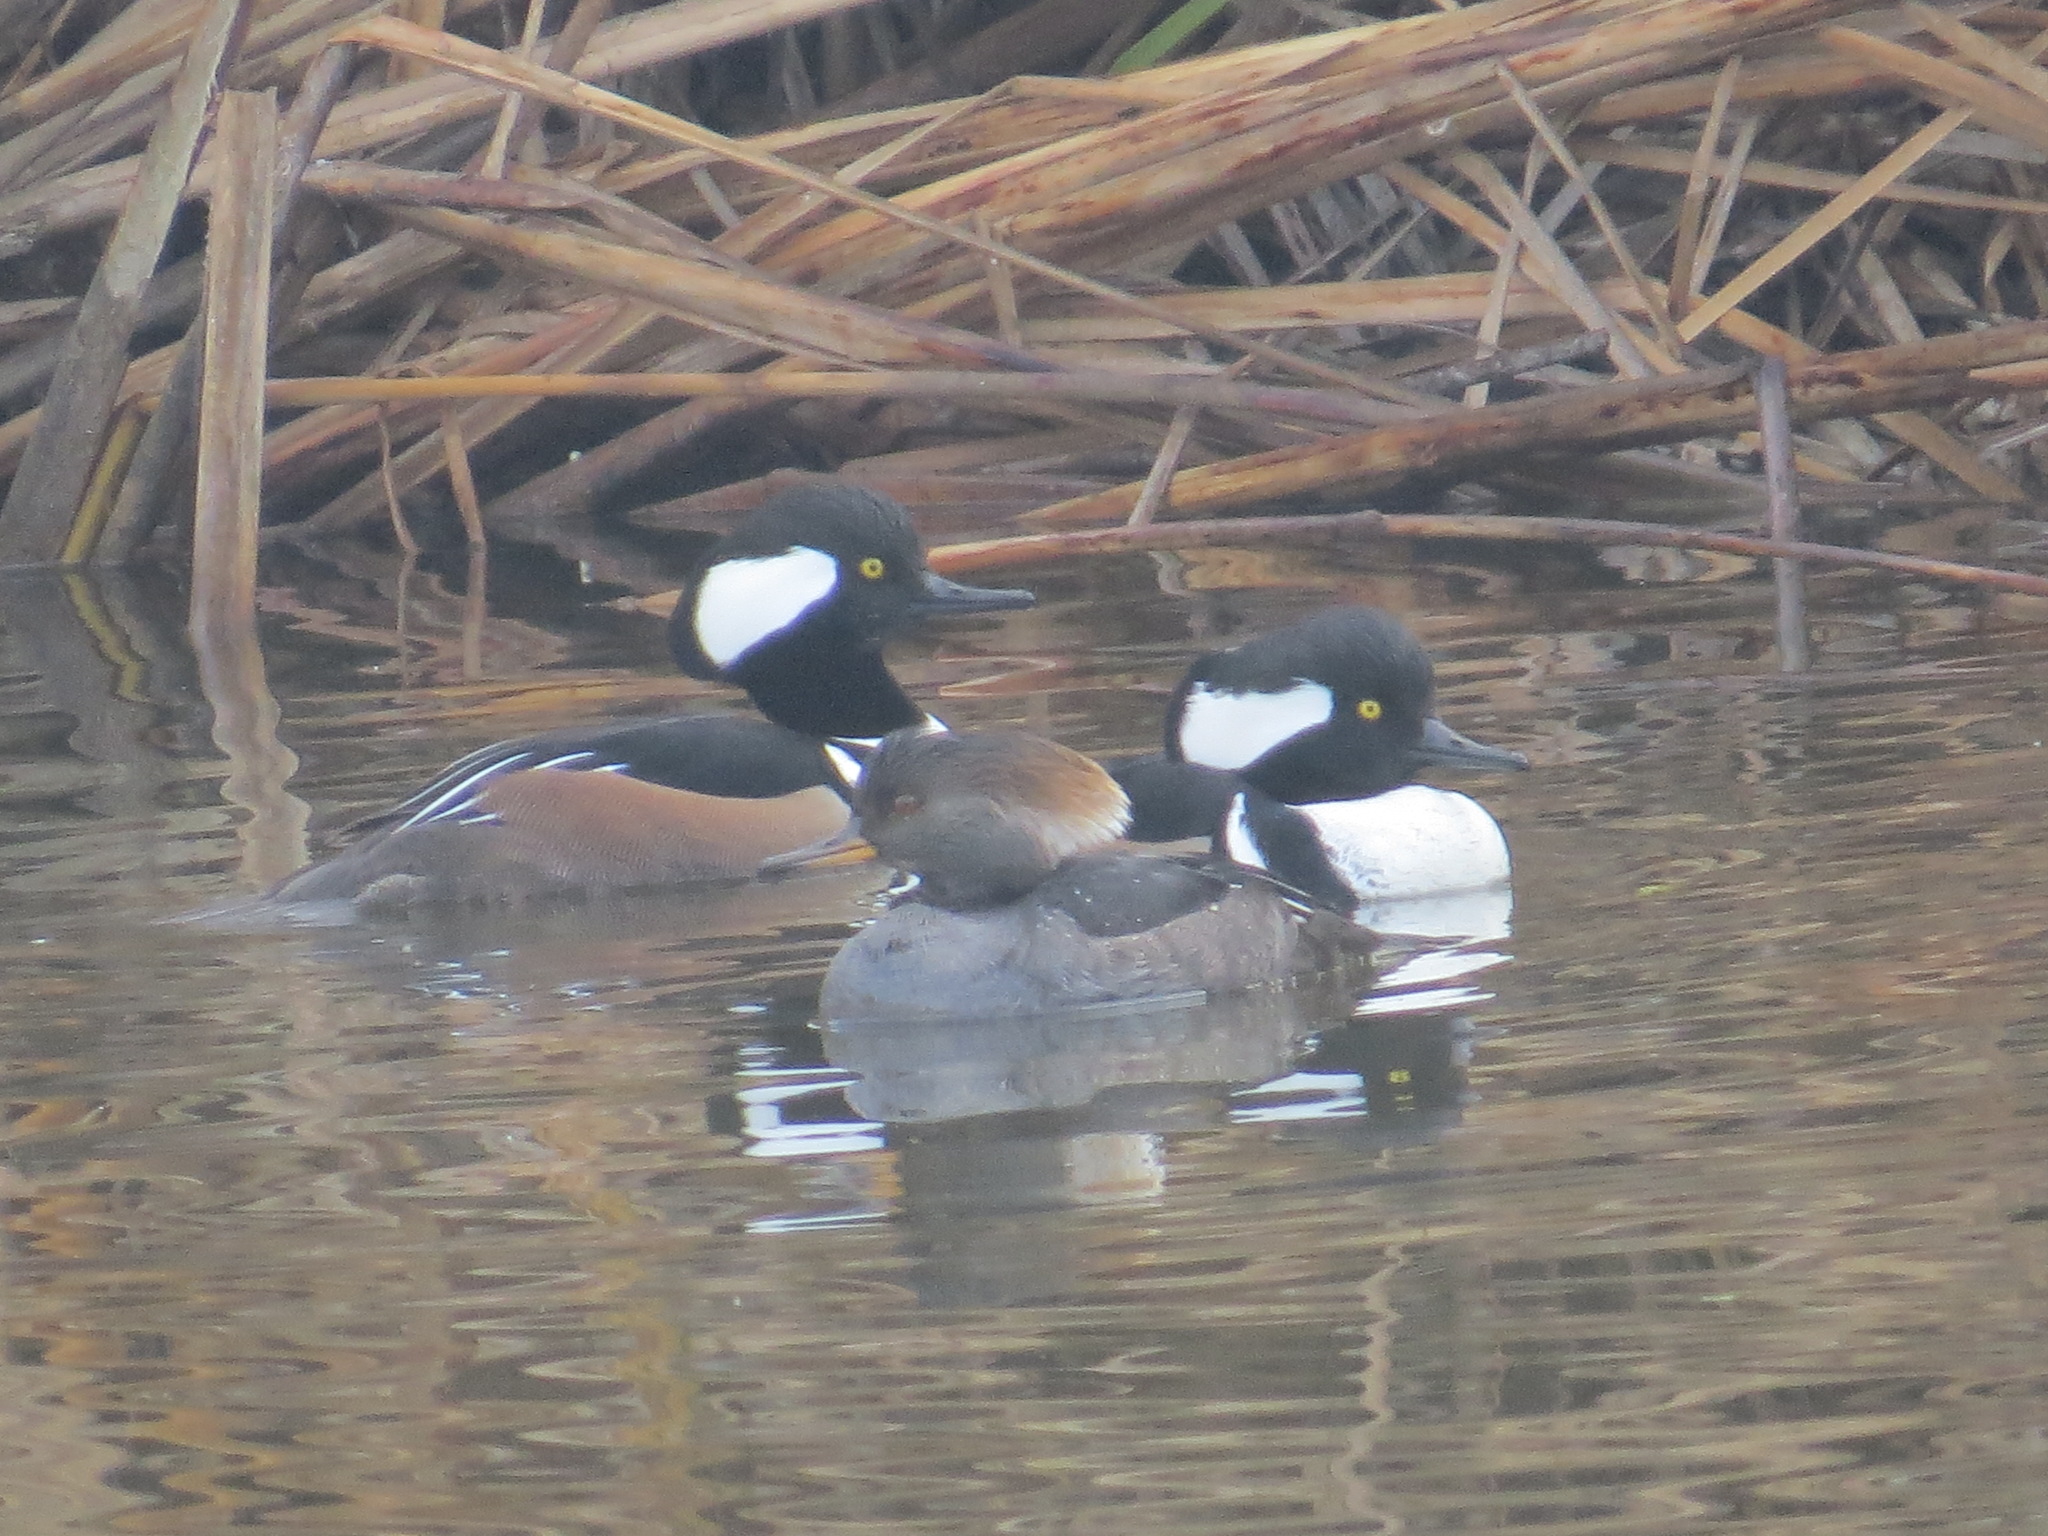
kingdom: Animalia
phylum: Chordata
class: Aves
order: Anseriformes
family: Anatidae
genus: Lophodytes
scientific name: Lophodytes cucullatus
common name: Hooded merganser
